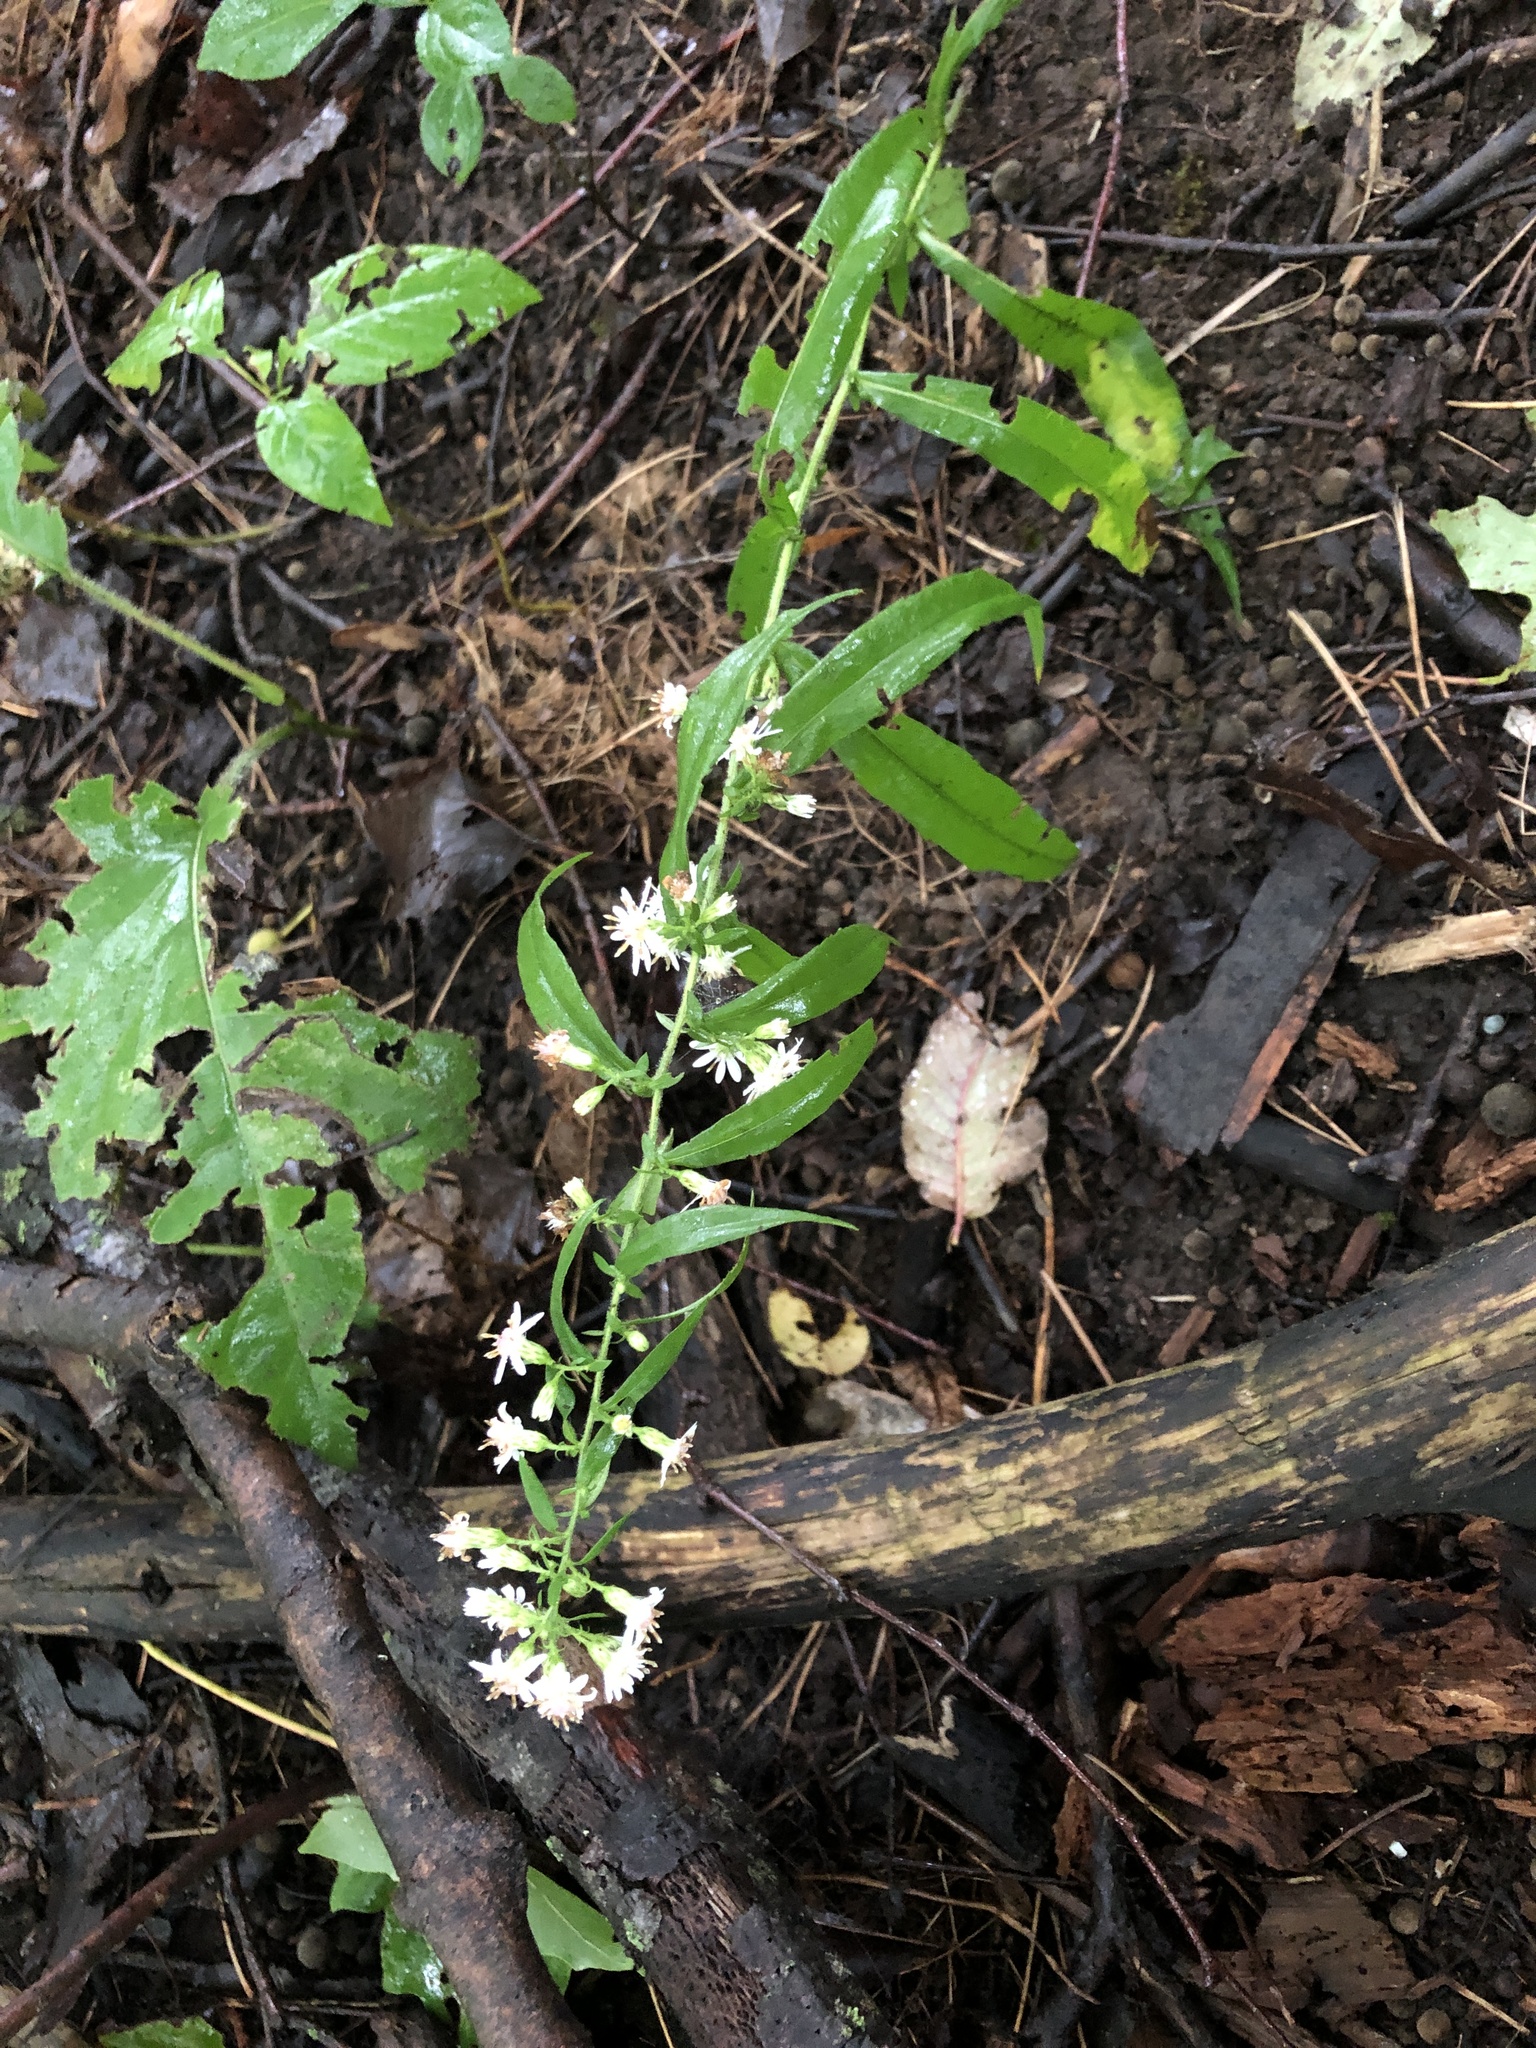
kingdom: Plantae
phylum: Tracheophyta
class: Magnoliopsida
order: Asterales
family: Asteraceae
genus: Symphyotrichum
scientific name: Symphyotrichum lateriflorum
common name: Calico aster
